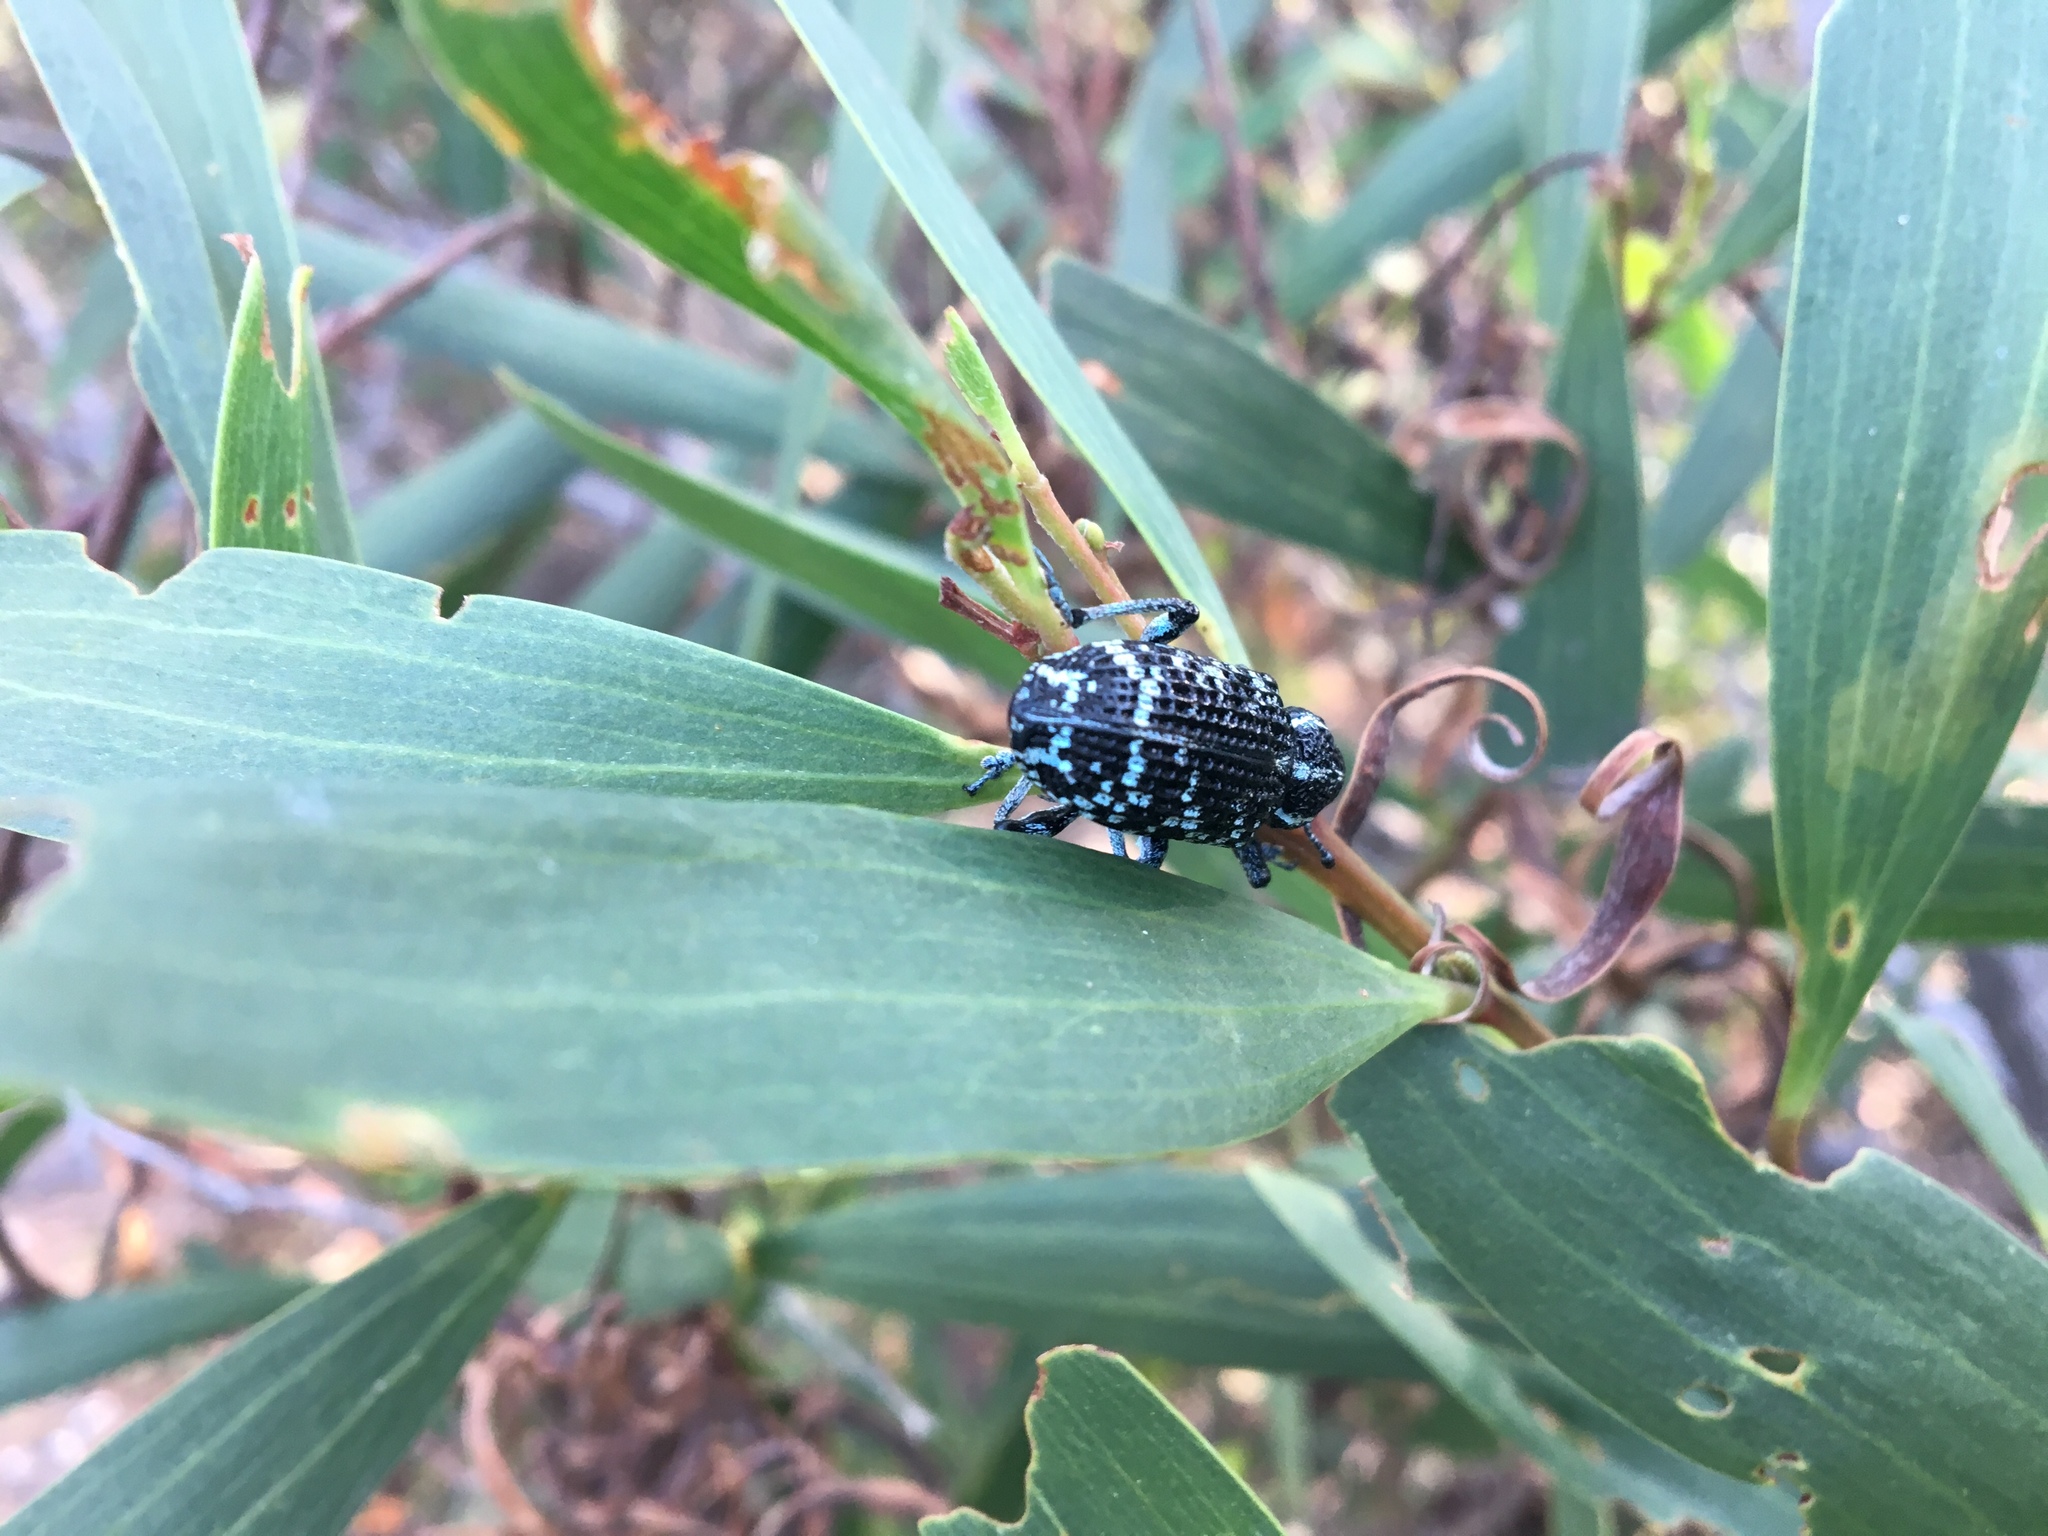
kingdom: Animalia
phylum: Arthropoda
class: Insecta
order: Coleoptera
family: Curculionidae
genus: Chrysolopus
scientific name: Chrysolopus spectabilis
